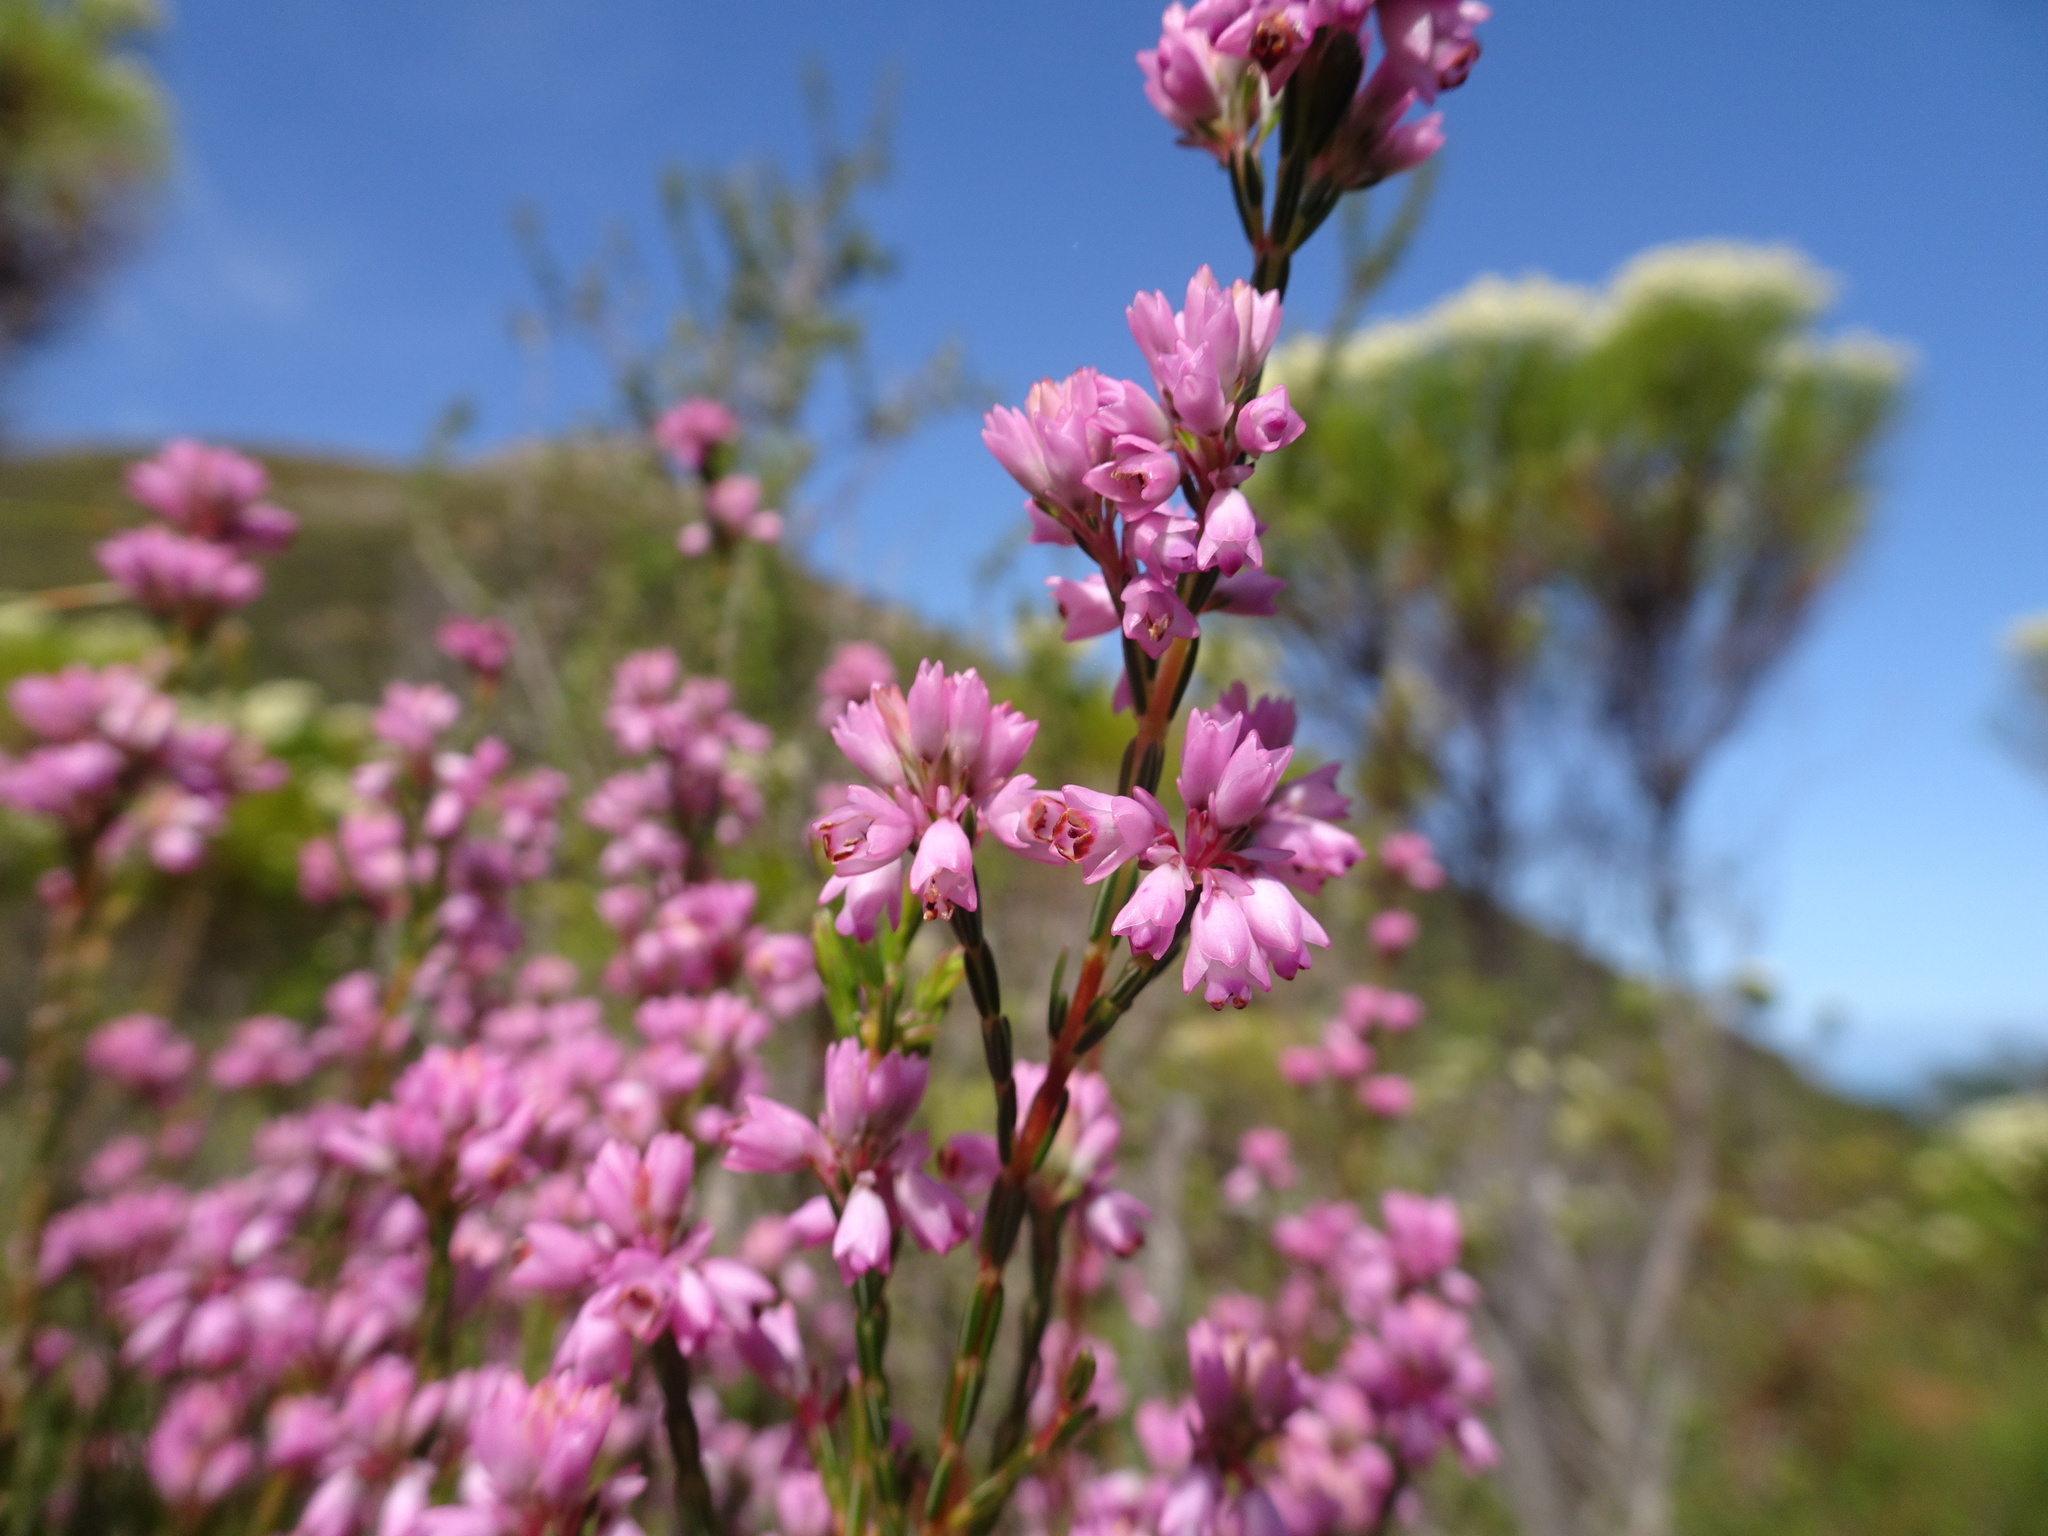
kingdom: Plantae
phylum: Tracheophyta
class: Magnoliopsida
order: Ericales
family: Ericaceae
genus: Erica
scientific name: Erica corifolia
